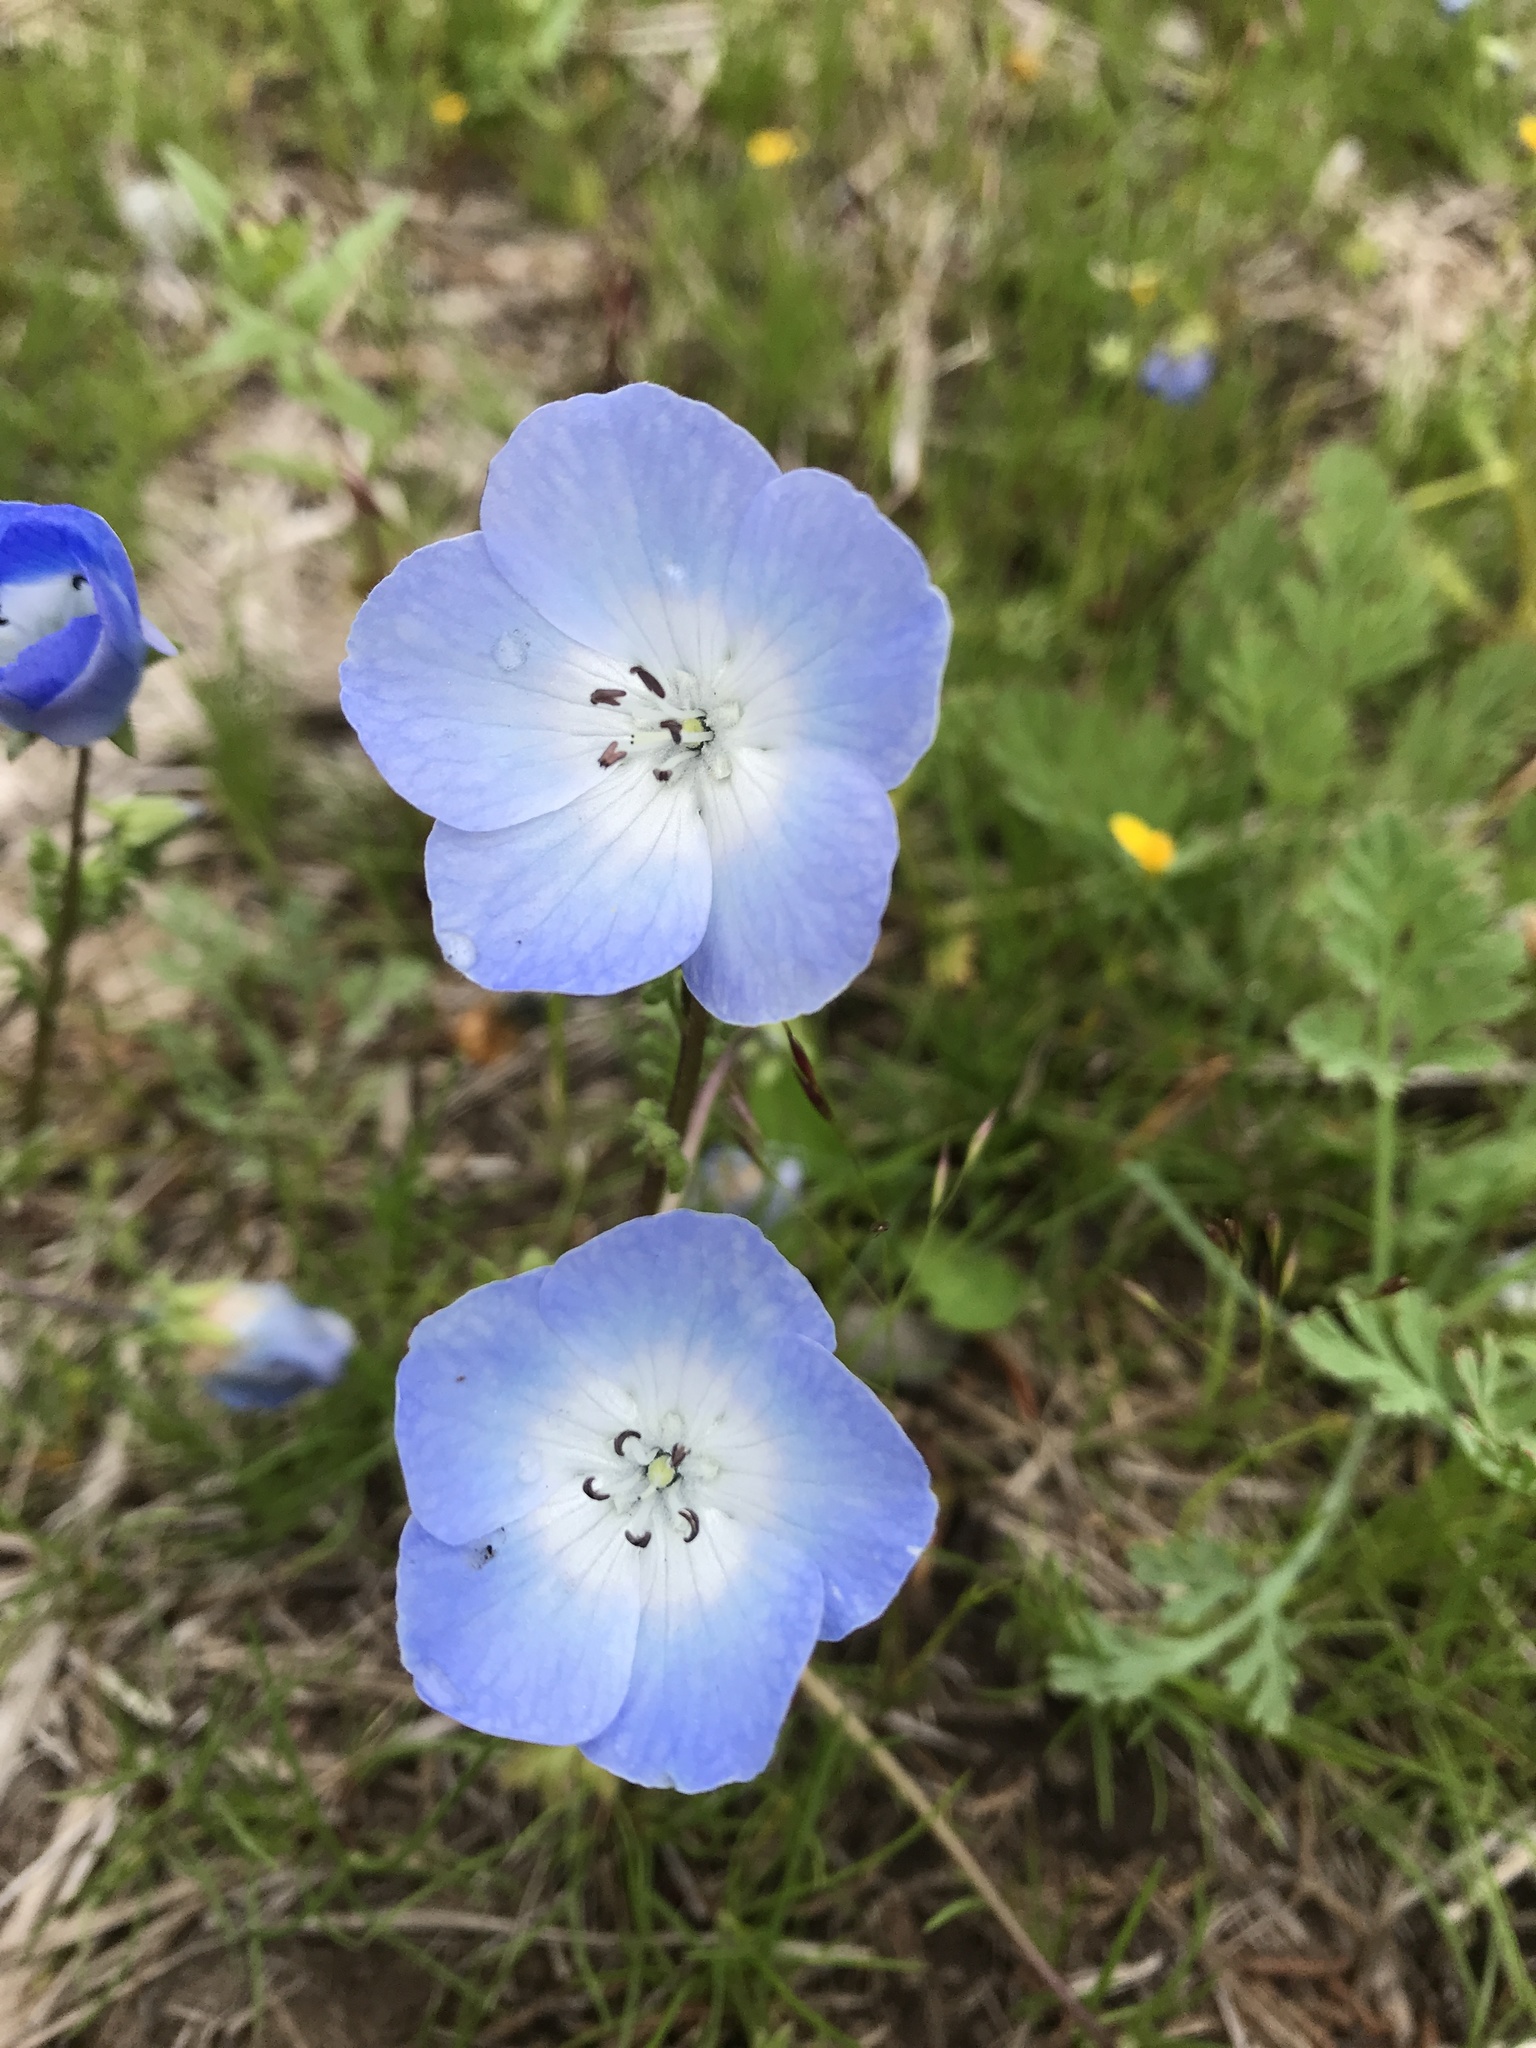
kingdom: Plantae
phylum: Tracheophyta
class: Magnoliopsida
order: Boraginales
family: Hydrophyllaceae
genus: Nemophila
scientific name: Nemophila menziesii
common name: Baby's-blue-eyes
